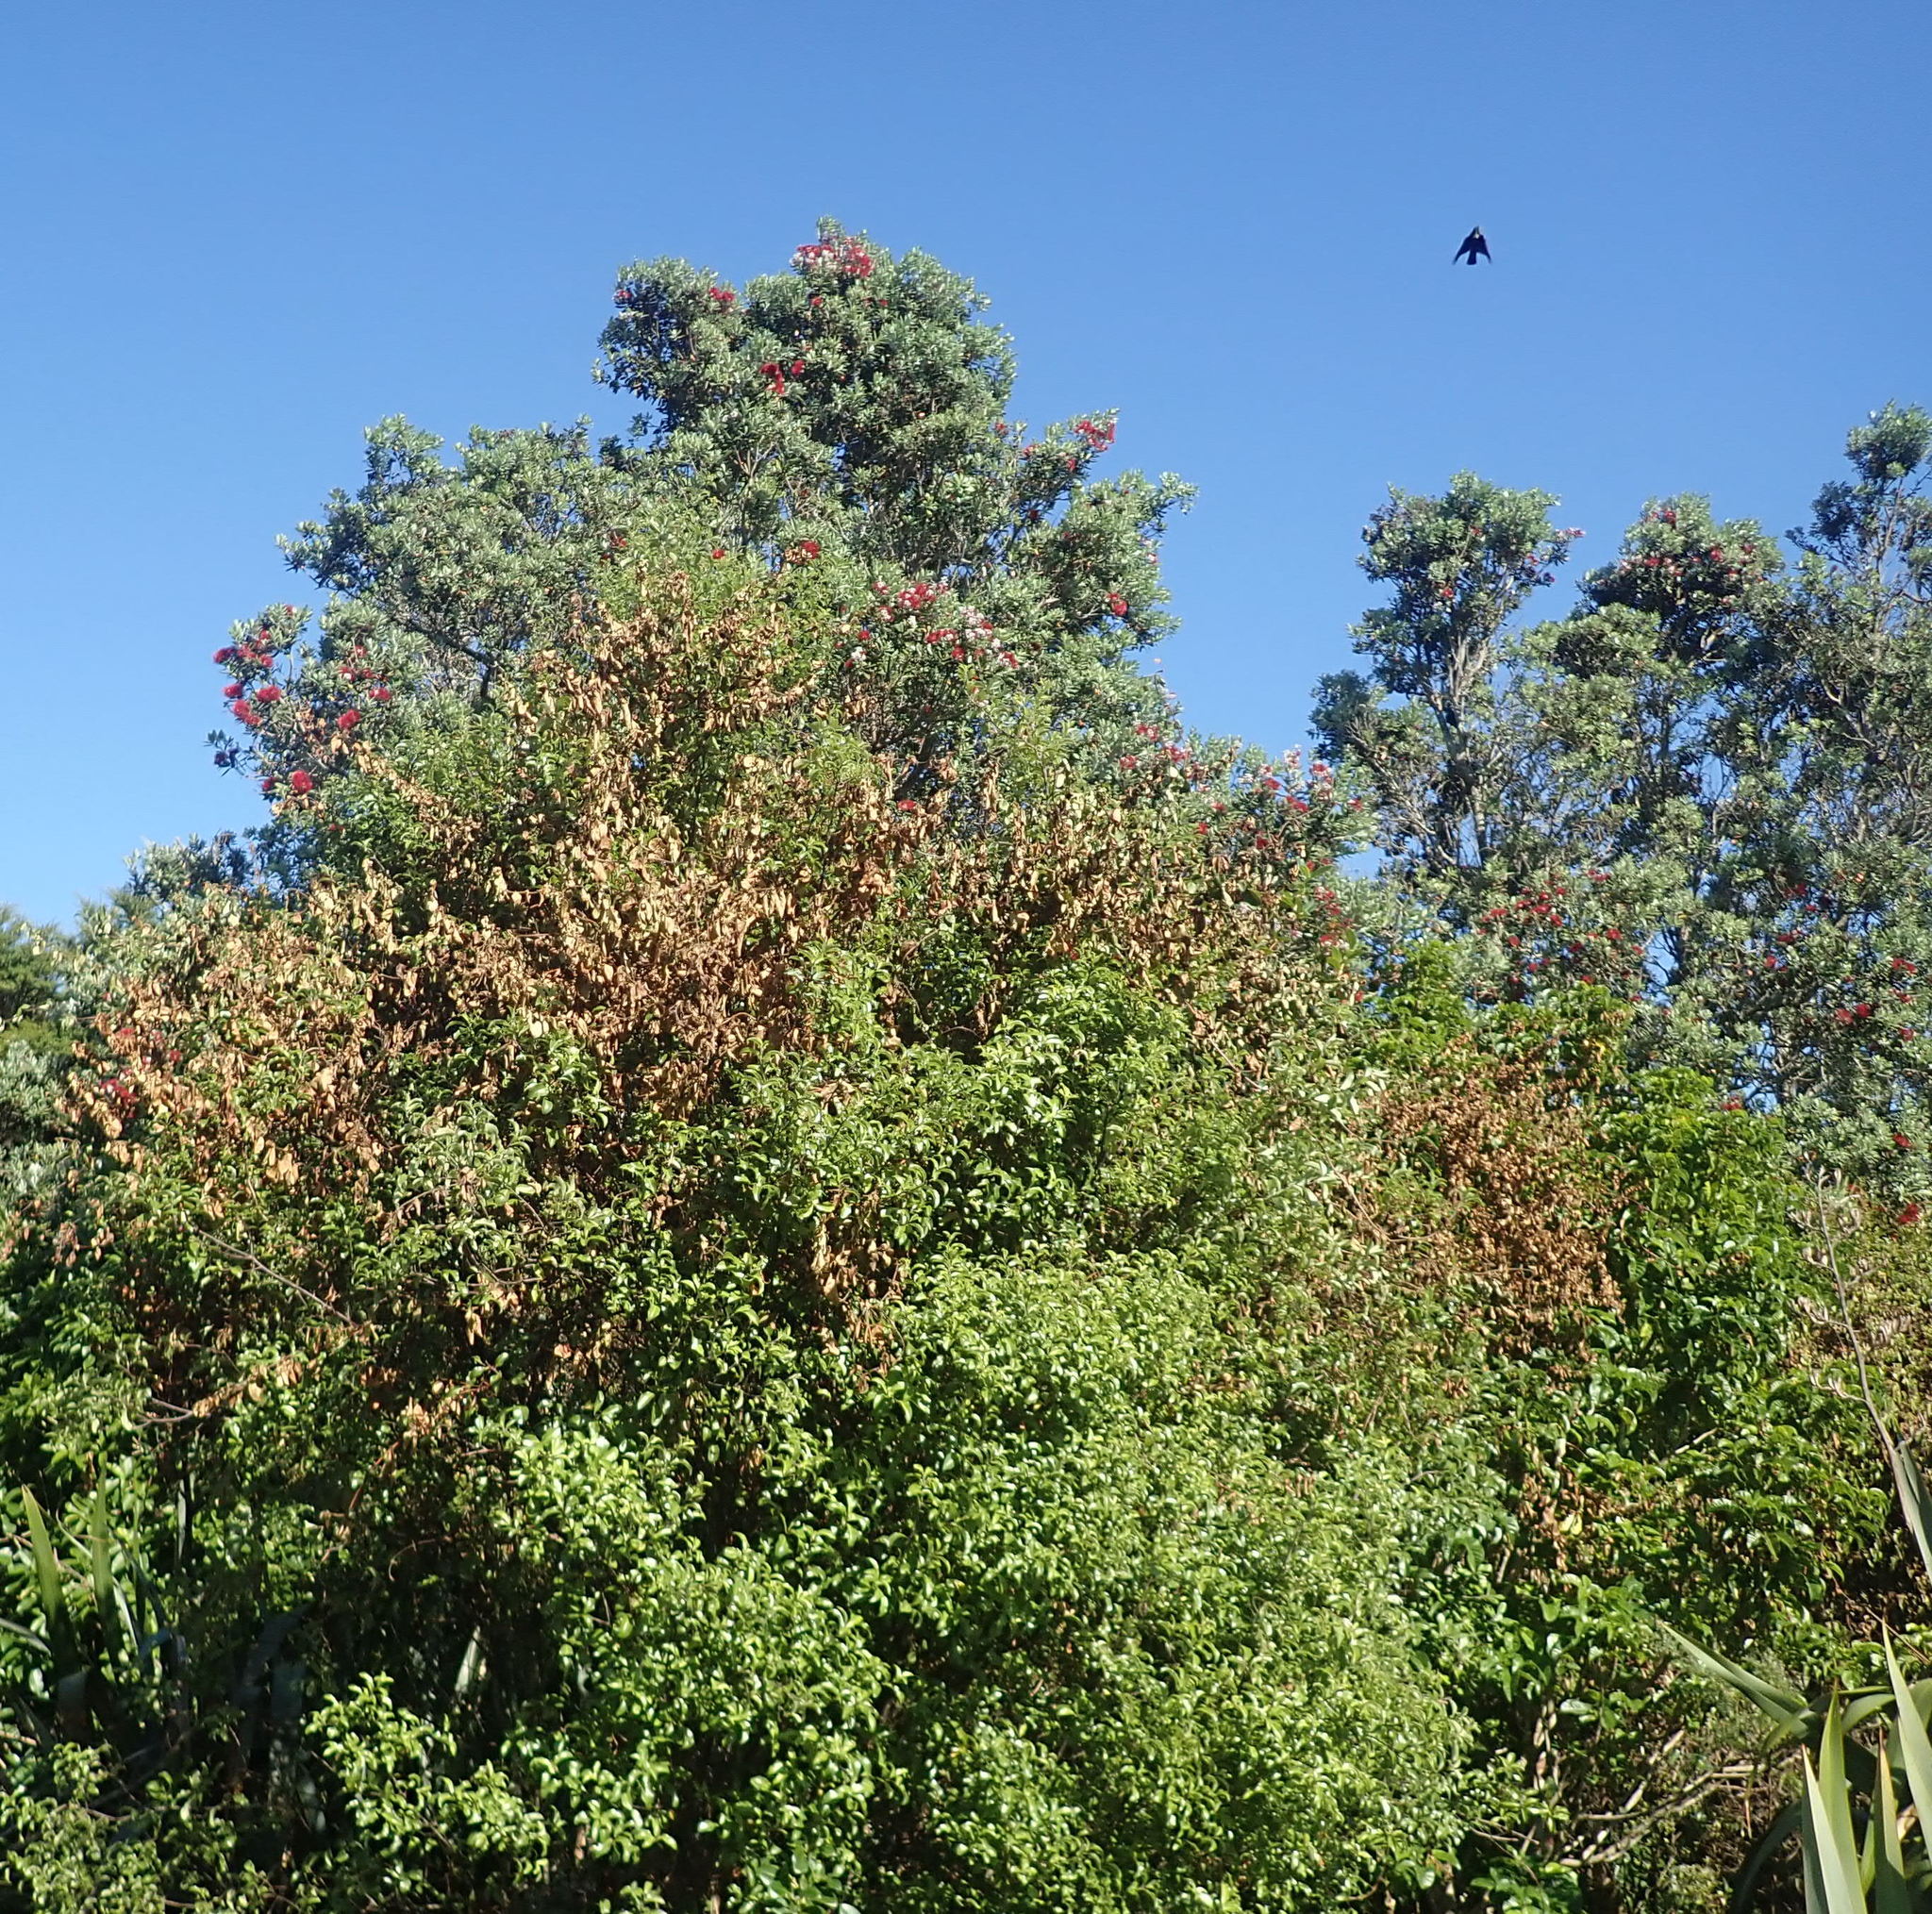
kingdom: Animalia
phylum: Chordata
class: Aves
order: Passeriformes
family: Meliphagidae
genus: Prosthemadera
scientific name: Prosthemadera novaeseelandiae
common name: Tui
